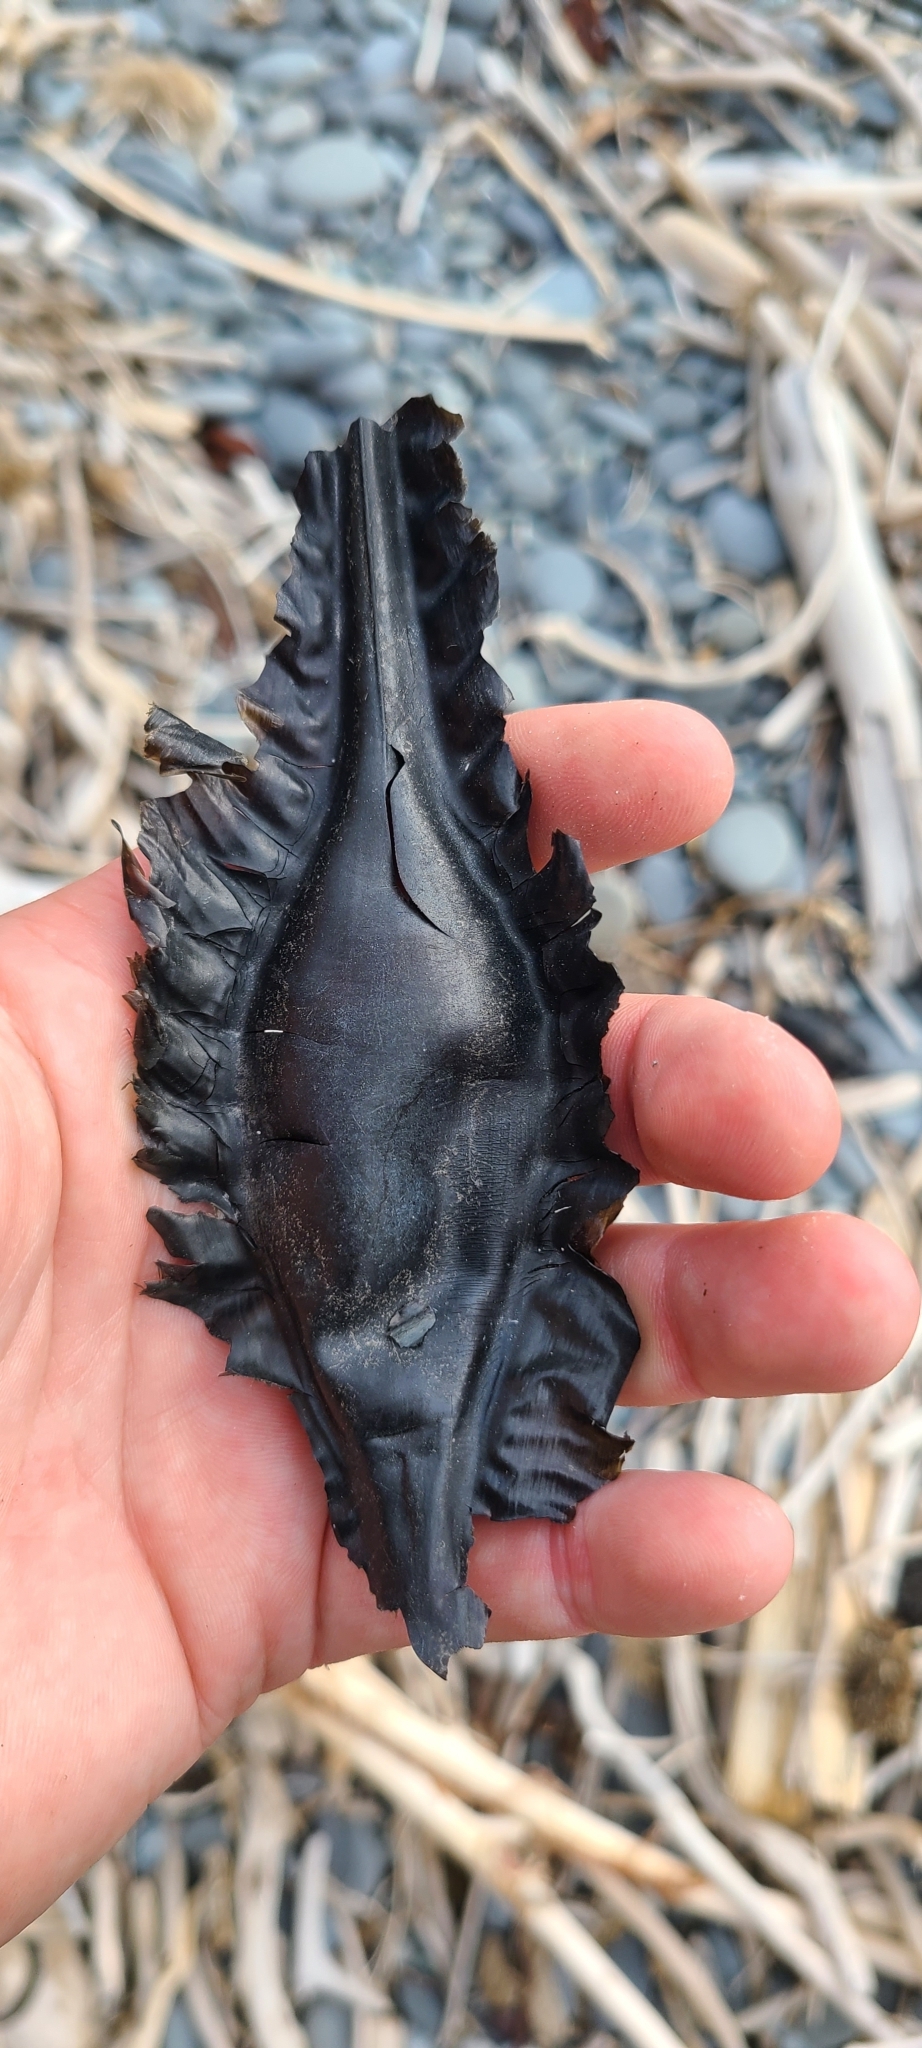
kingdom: Animalia
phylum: Chordata
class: Holocephali
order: Chimaeriformes
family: Callorhinchidae
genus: Callorhinchus
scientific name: Callorhinchus milii
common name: Elephant fish
